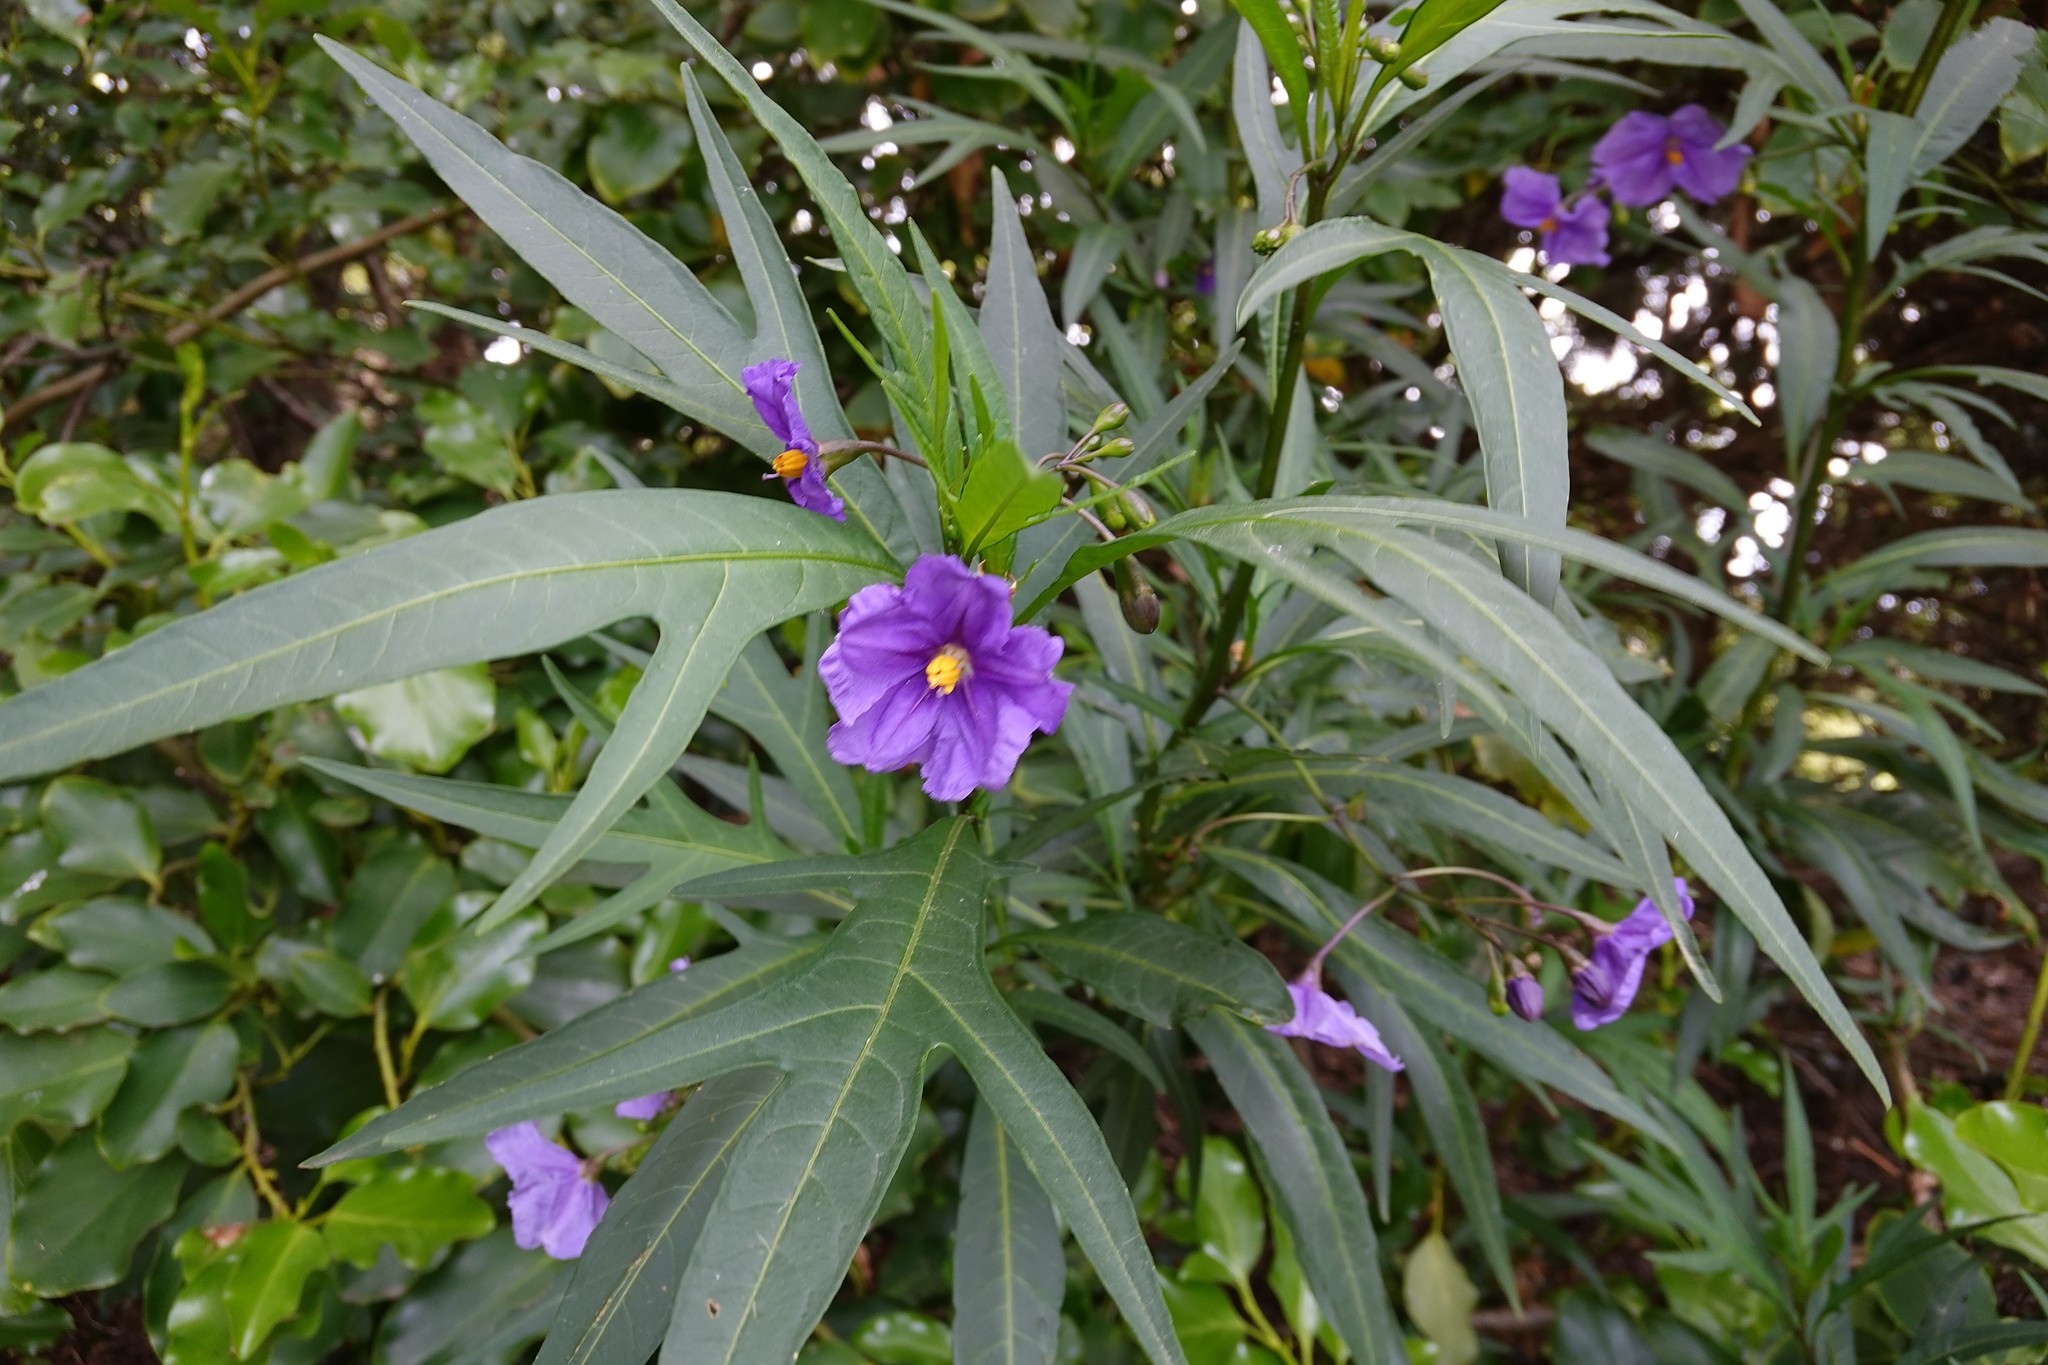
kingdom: Plantae
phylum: Tracheophyta
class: Magnoliopsida
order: Solanales
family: Solanaceae
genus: Solanum
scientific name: Solanum laciniatum
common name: Kangaroo-apple
